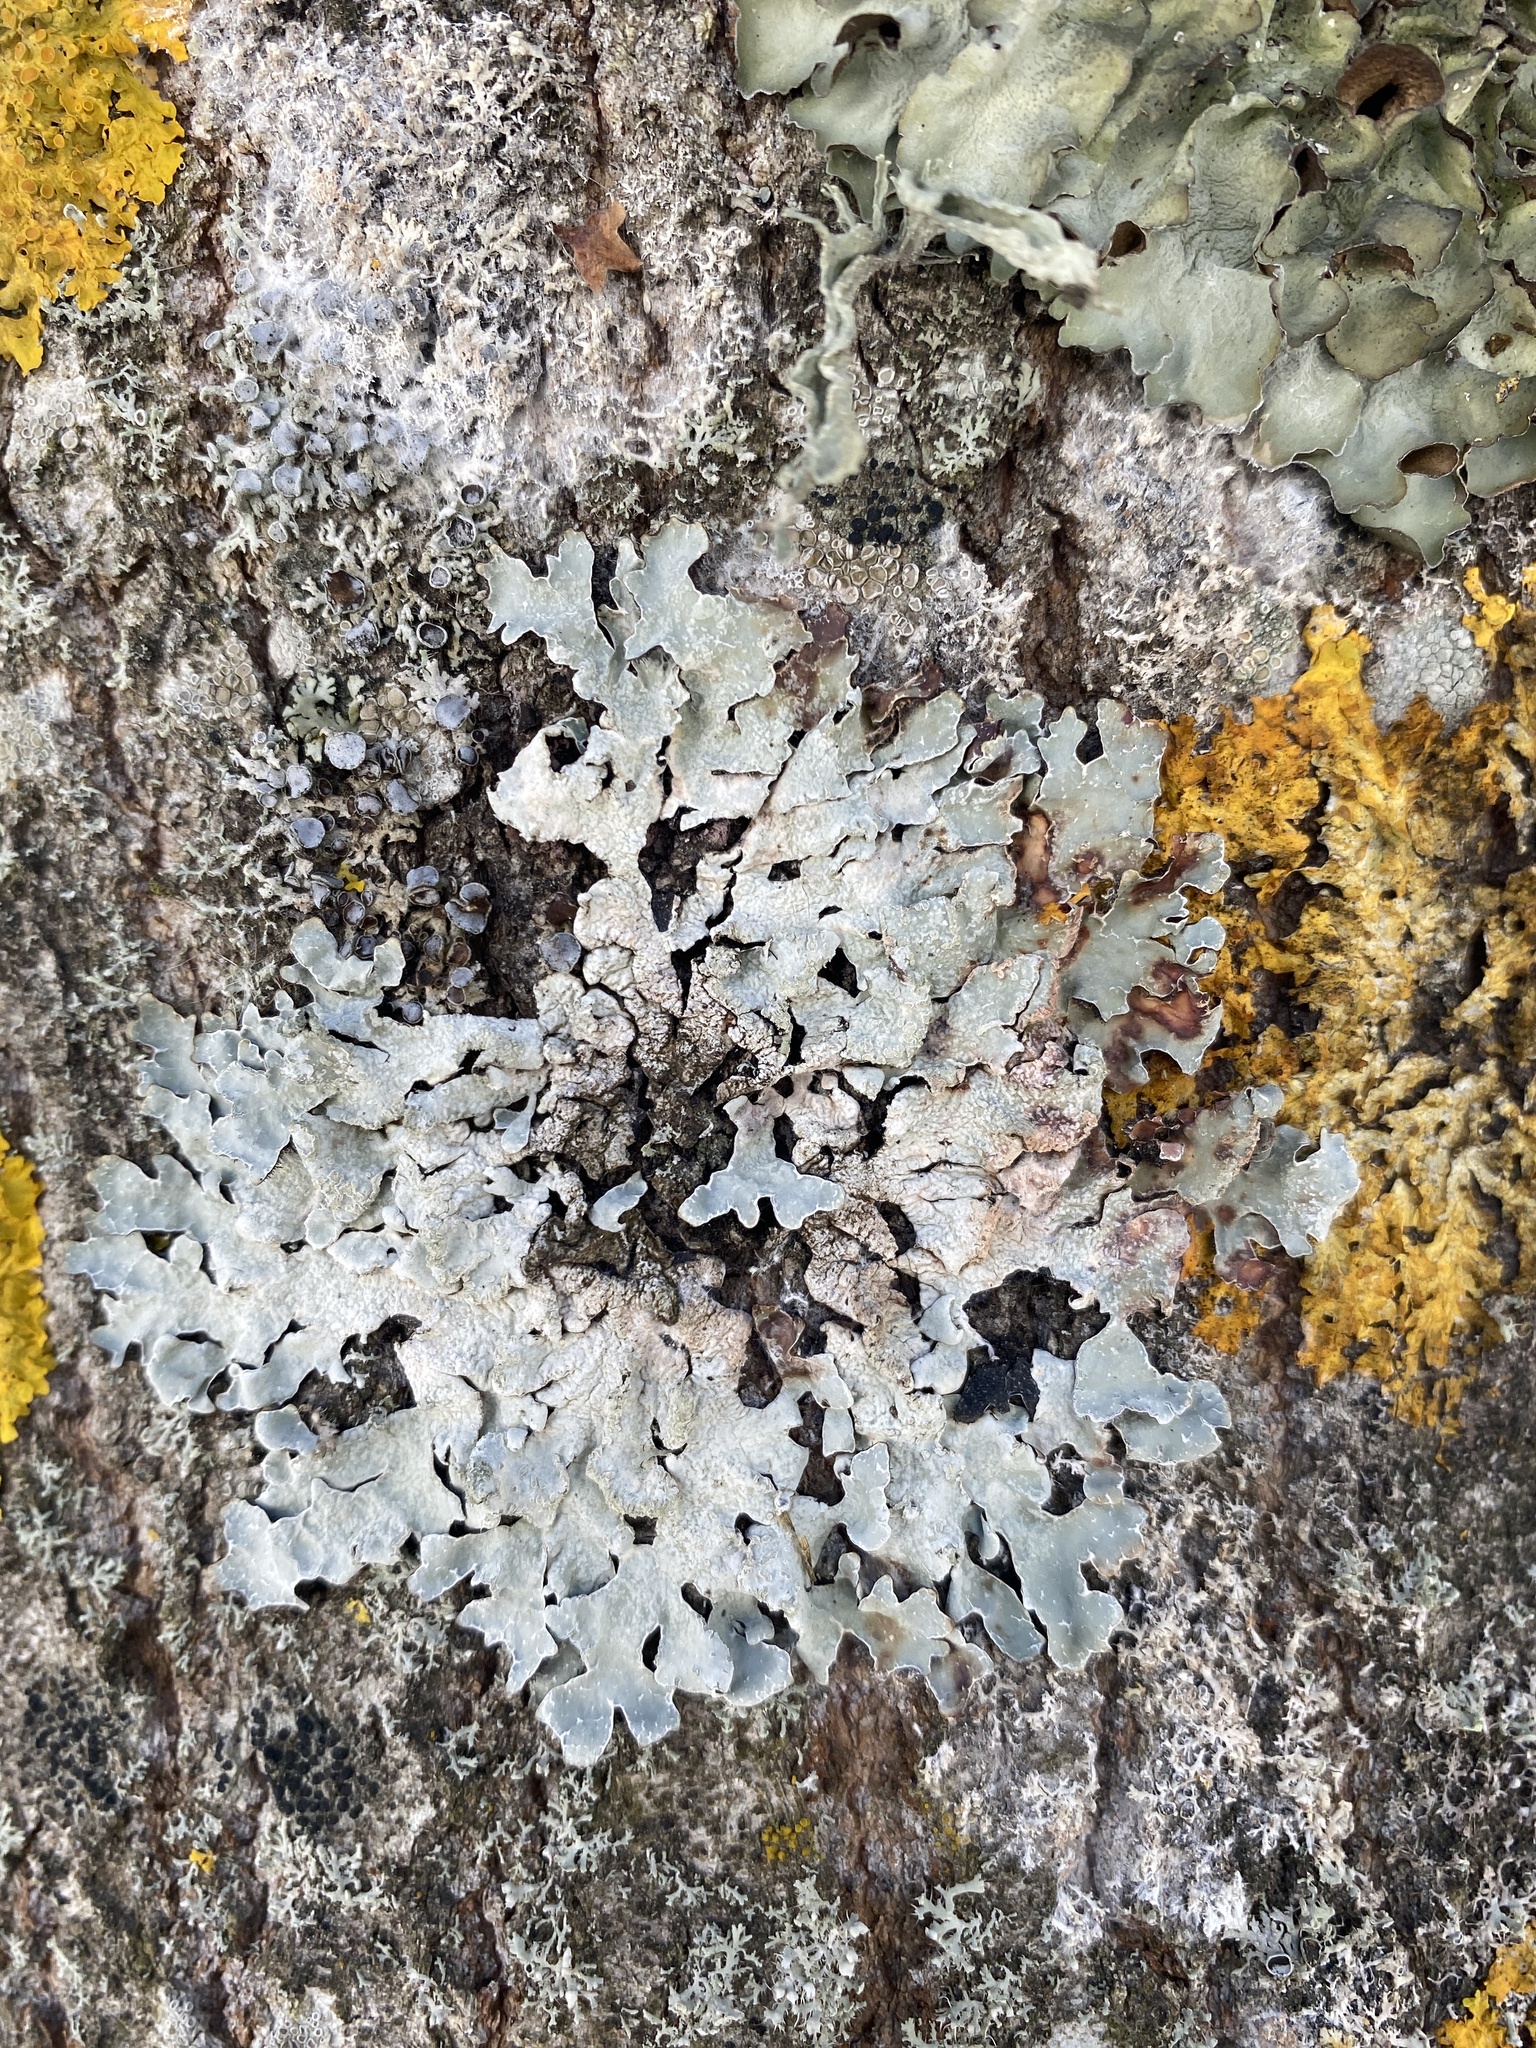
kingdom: Fungi
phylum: Ascomycota
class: Lecanoromycetes
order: Lecanorales
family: Parmeliaceae
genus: Parmelia
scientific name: Parmelia sulcata
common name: Netted shield lichen
